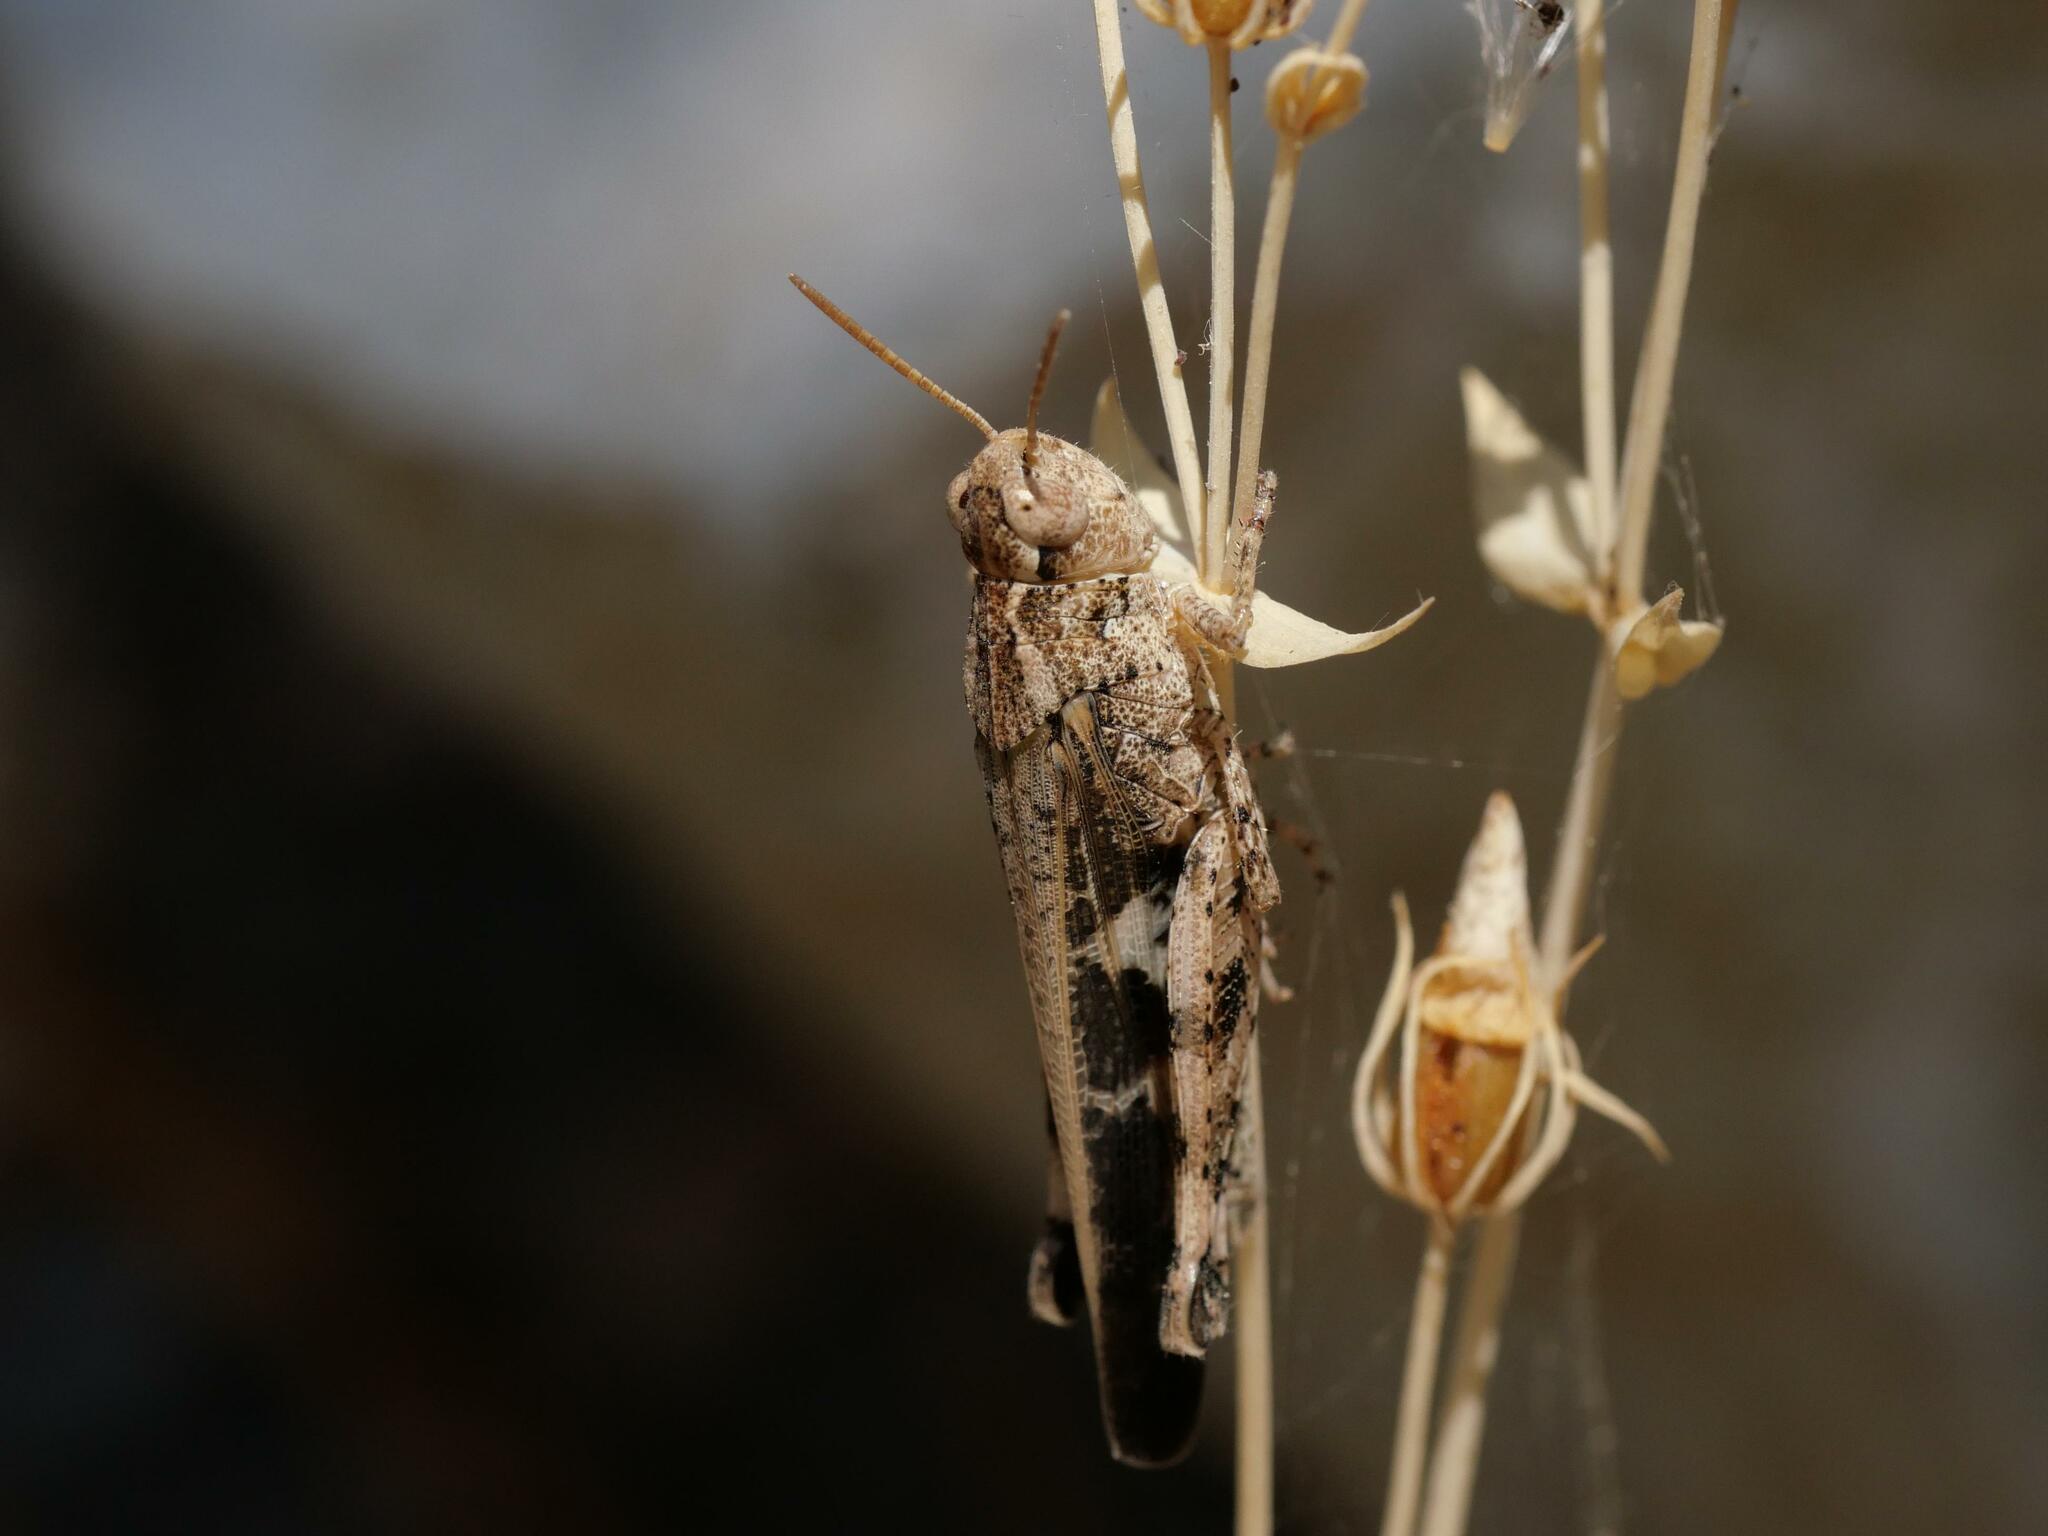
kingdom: Animalia
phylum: Arthropoda
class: Insecta
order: Orthoptera
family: Acrididae
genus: Aiolopus
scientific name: Aiolopus strepens
